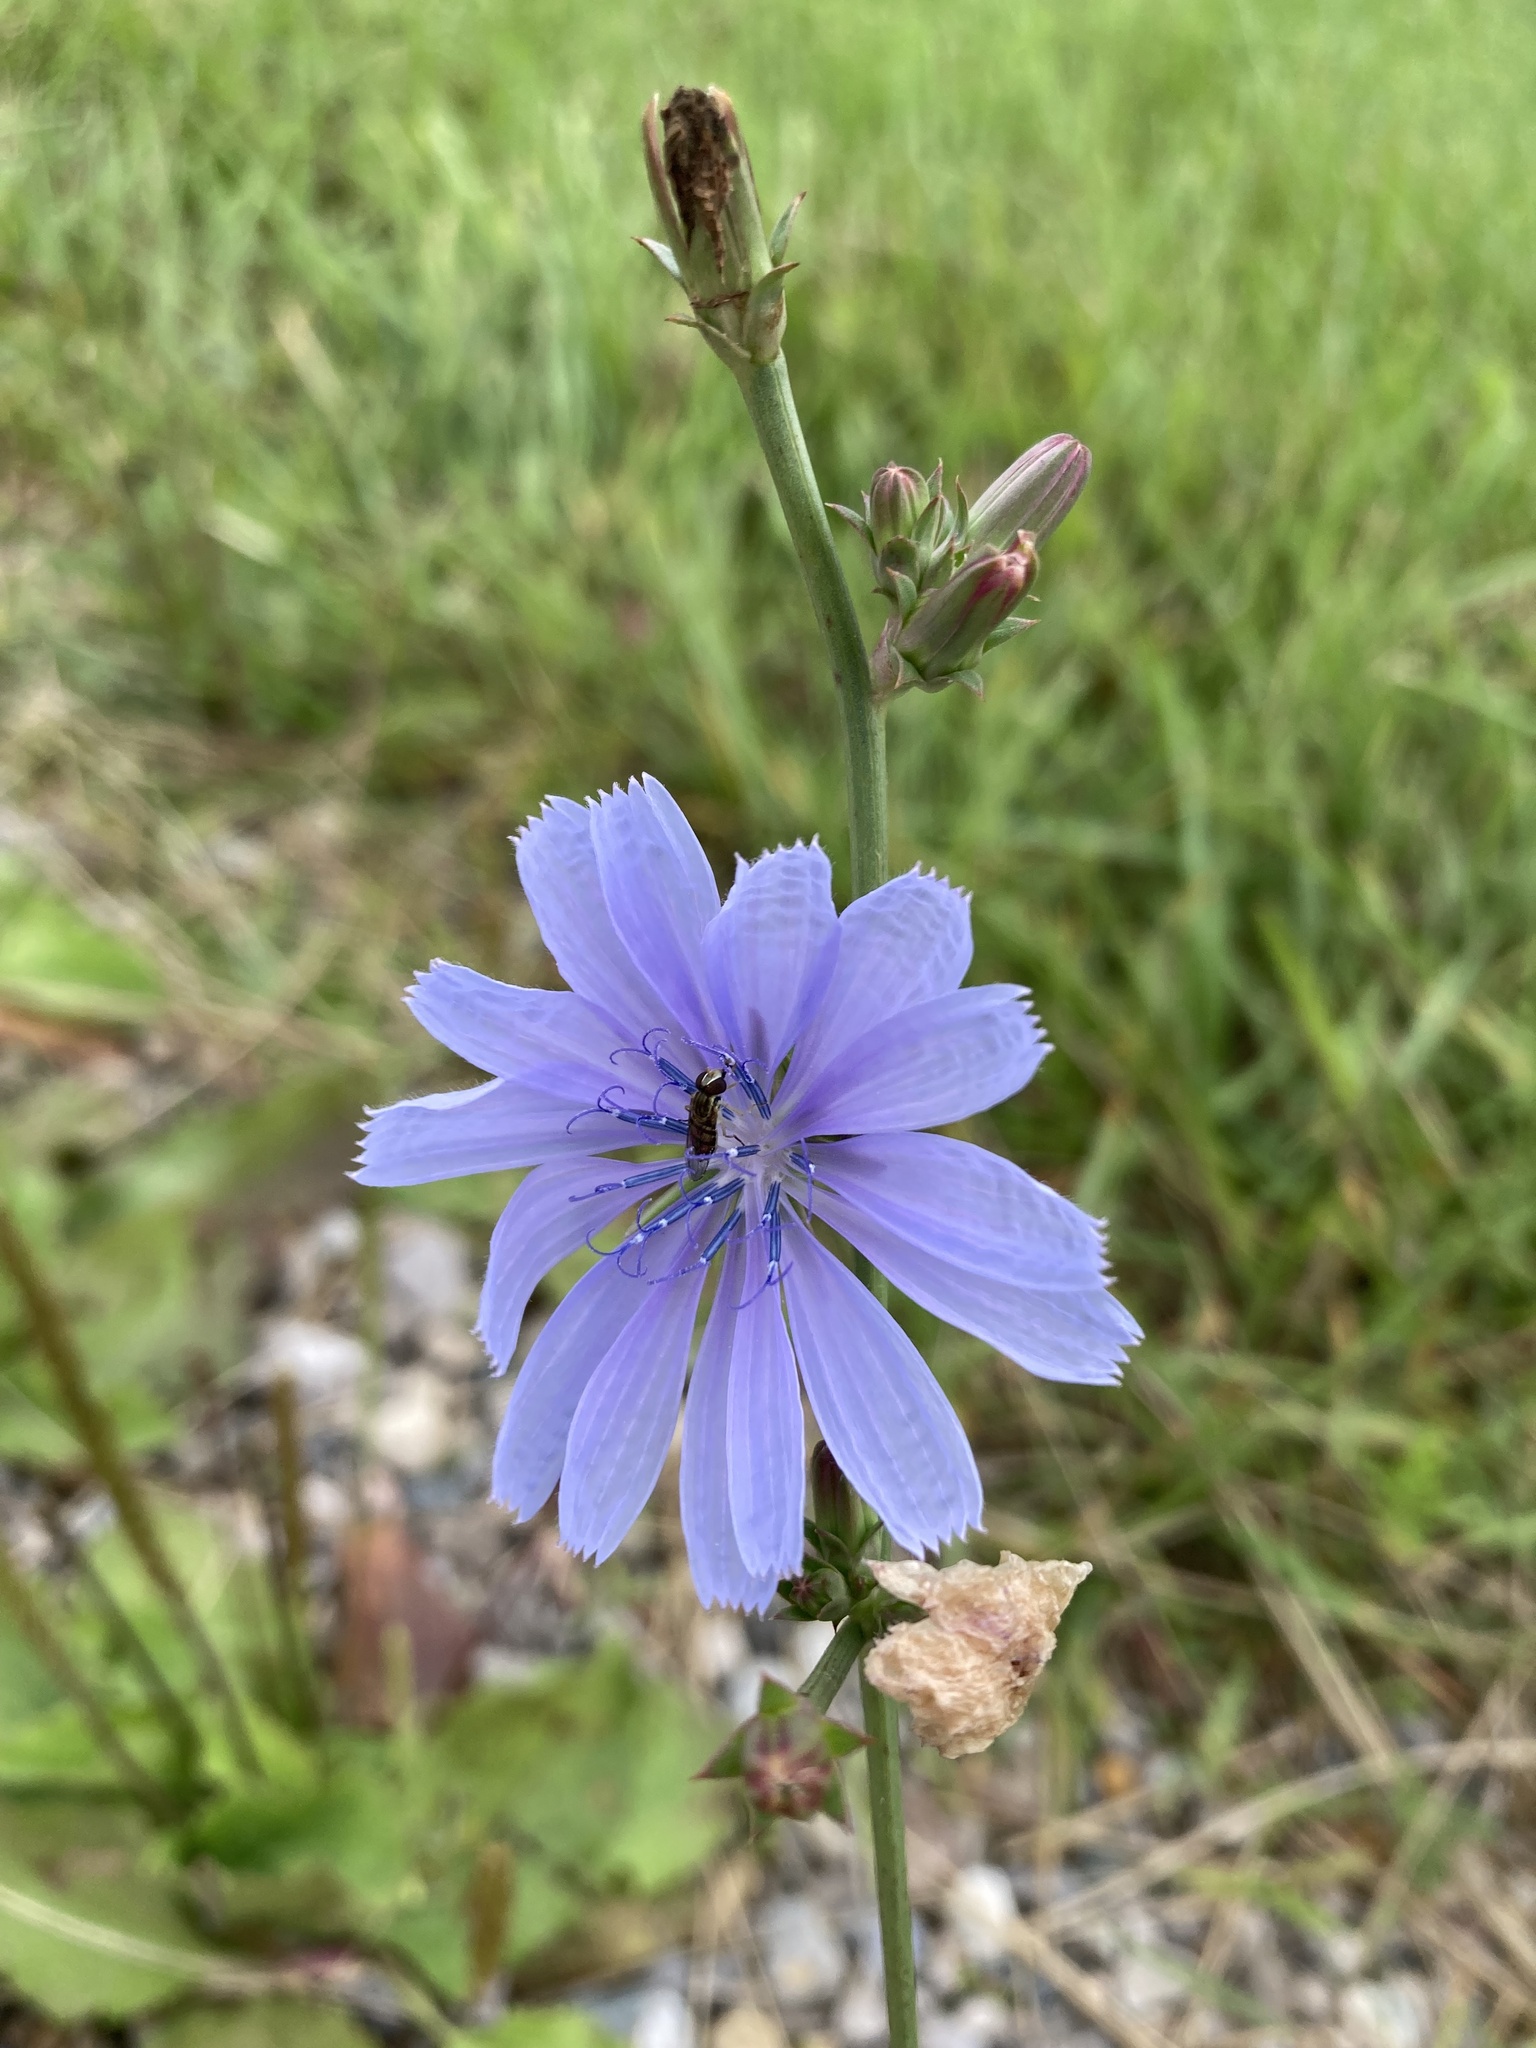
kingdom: Plantae
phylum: Tracheophyta
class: Magnoliopsida
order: Asterales
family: Asteraceae
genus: Cichorium
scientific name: Cichorium intybus
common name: Chicory
